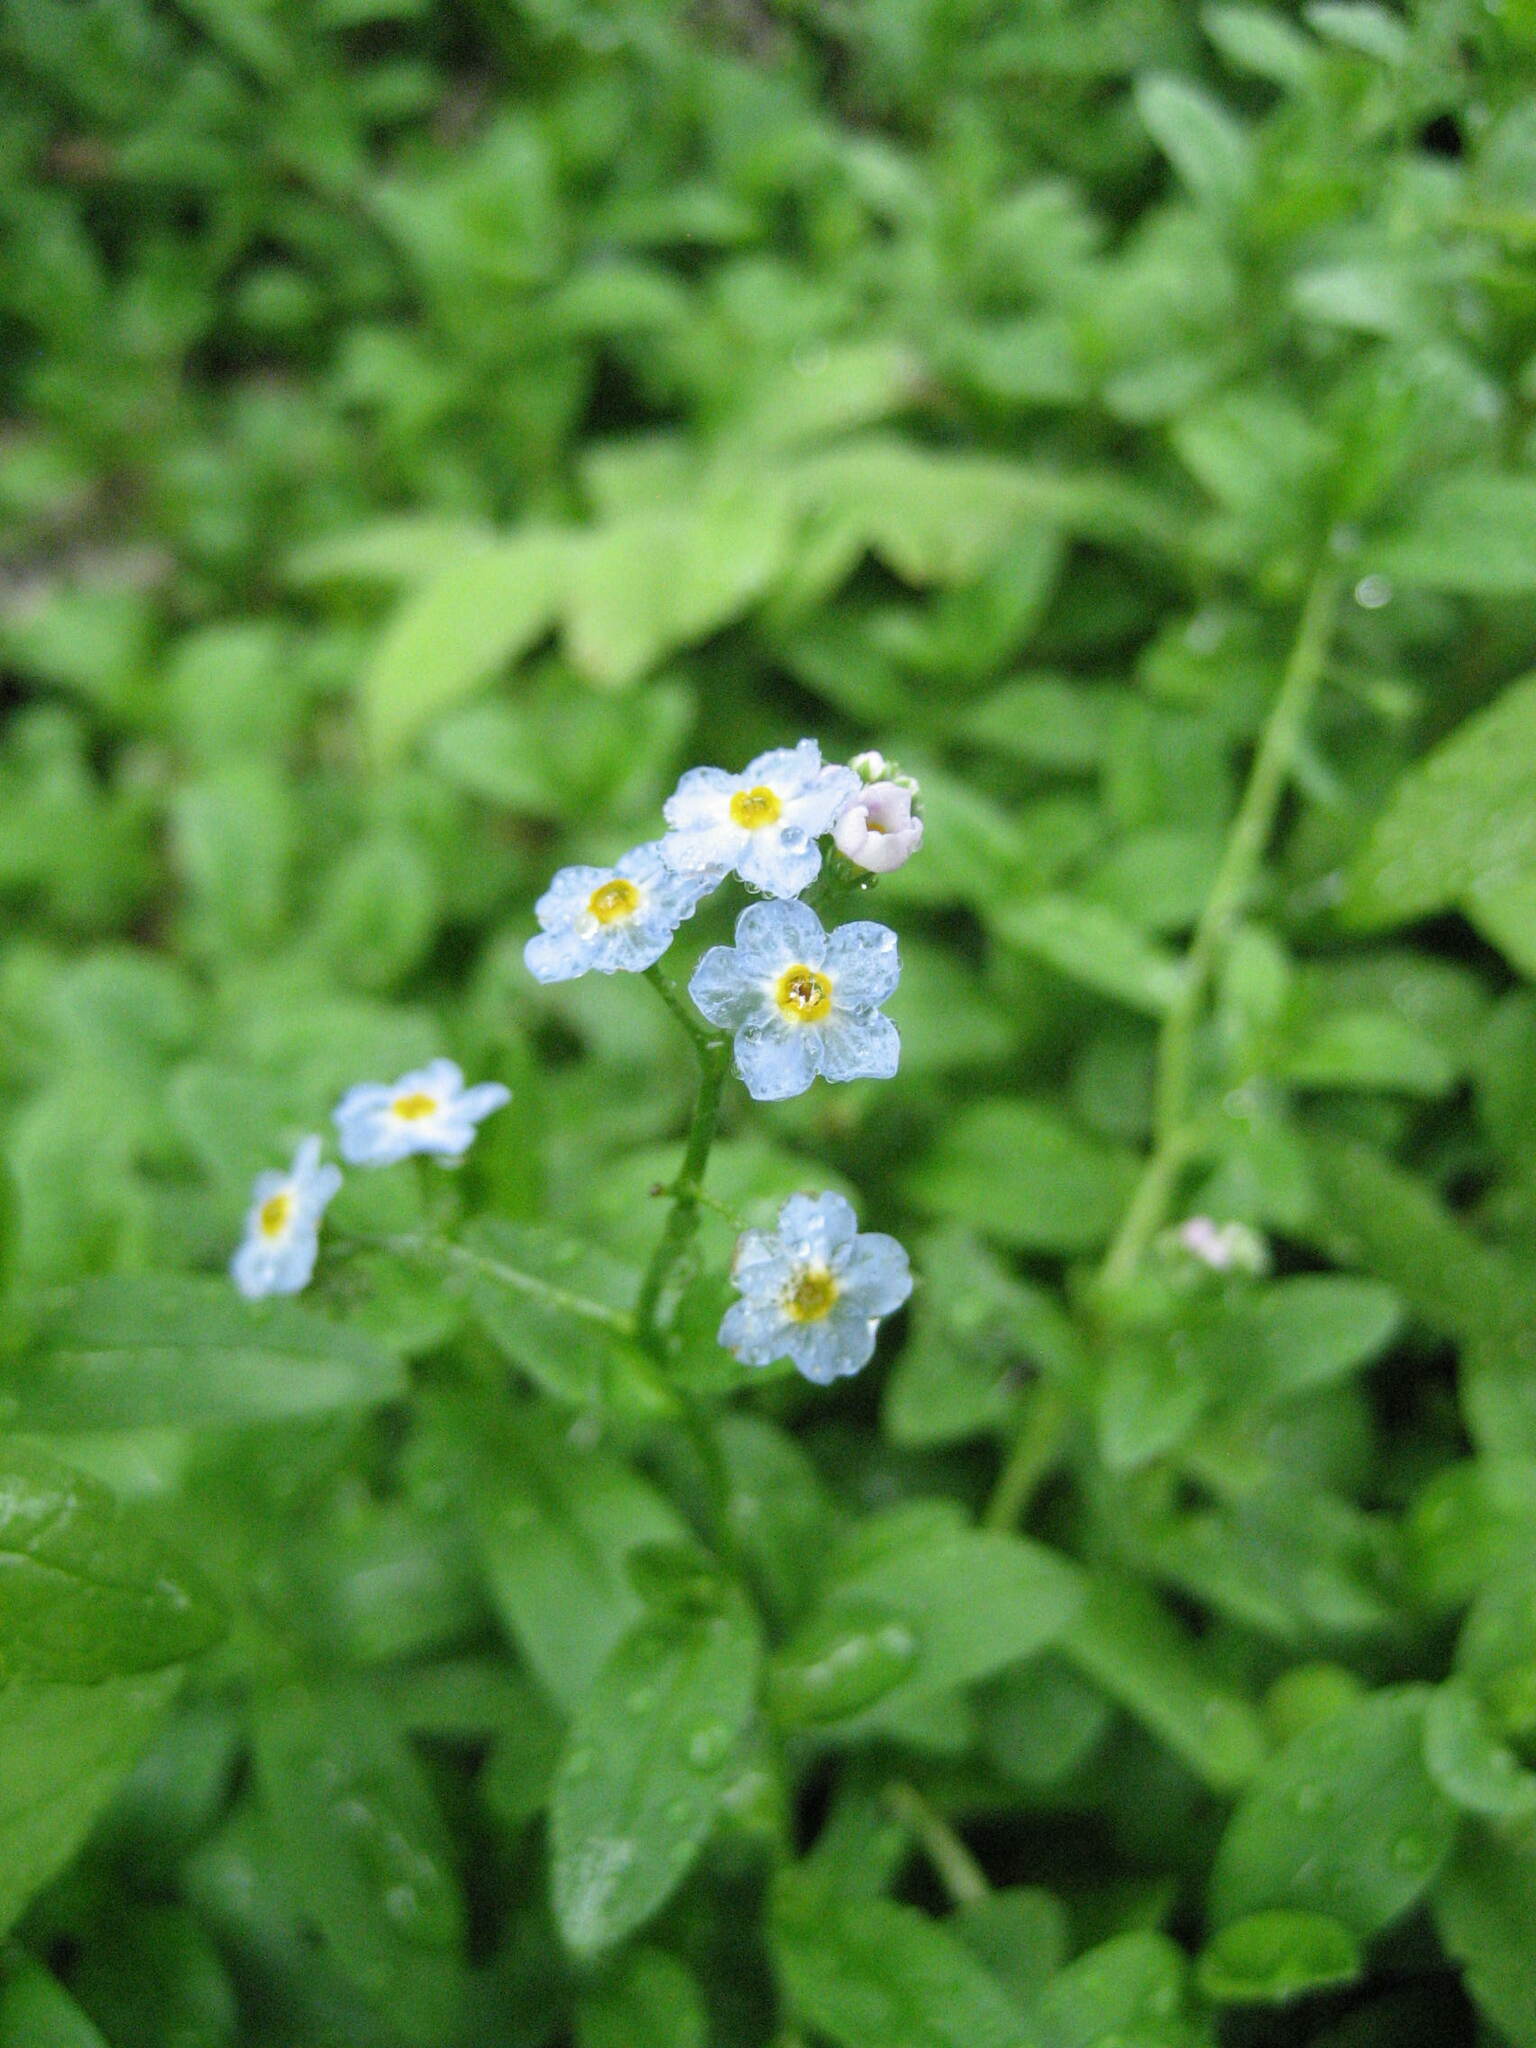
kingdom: Plantae
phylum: Tracheophyta
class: Magnoliopsida
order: Boraginales
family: Boraginaceae
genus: Myosotis
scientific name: Myosotis scorpioides
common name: Water forget-me-not
